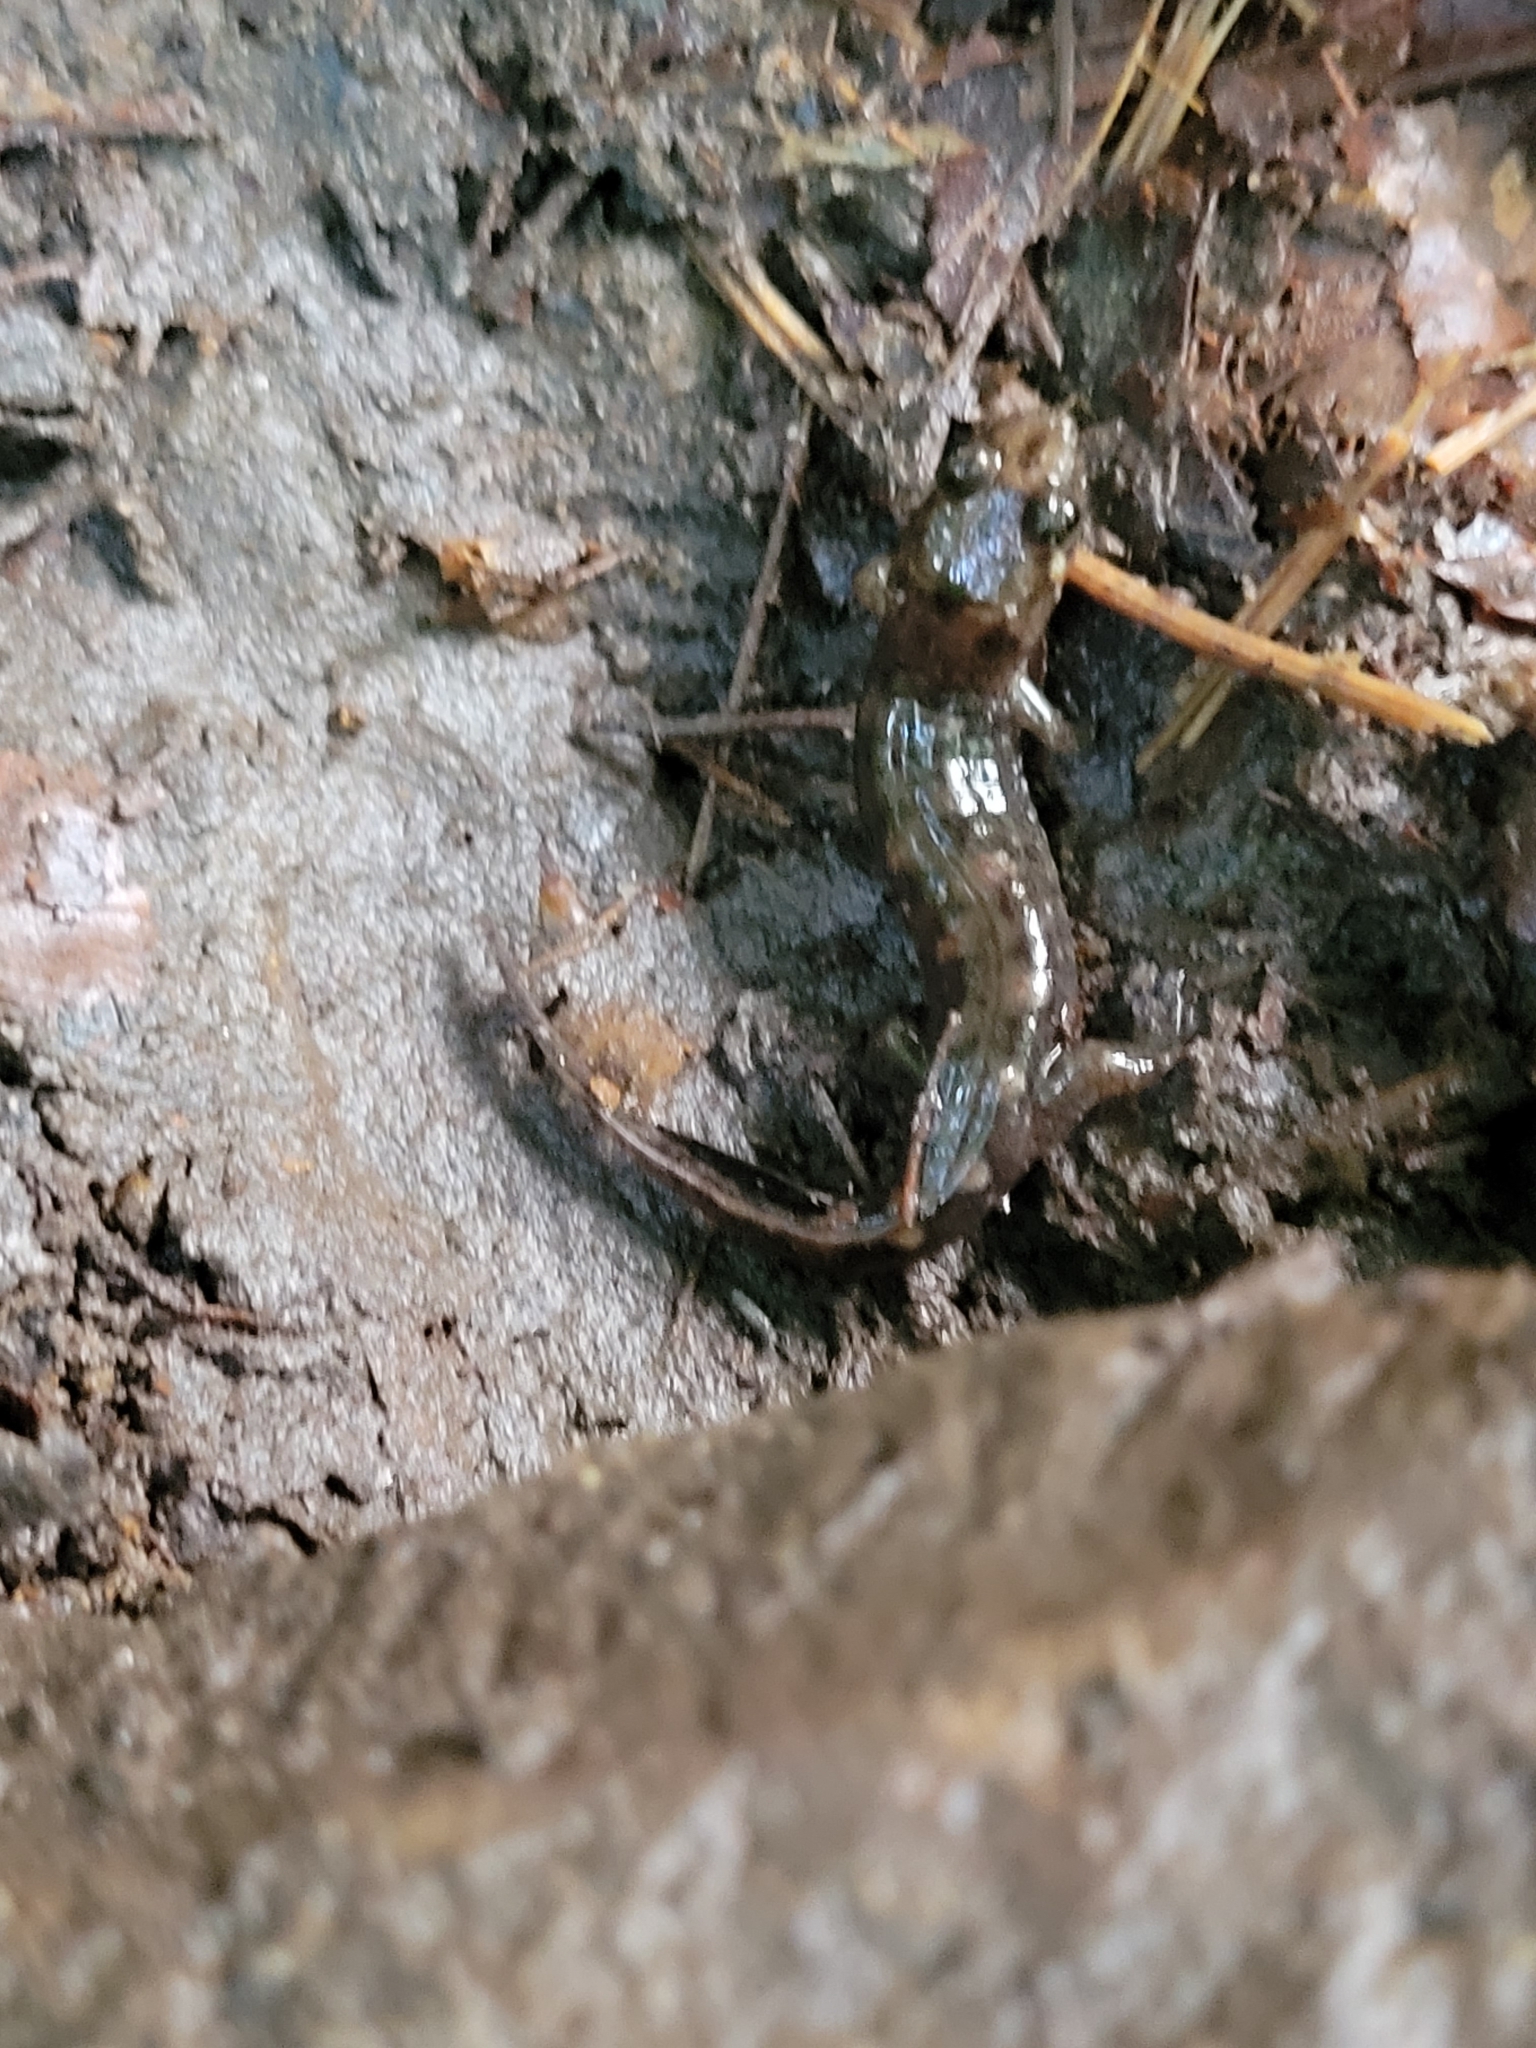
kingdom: Animalia
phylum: Chordata
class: Amphibia
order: Caudata
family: Plethodontidae
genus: Desmognathus
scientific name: Desmognathus monticola
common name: Seal salamander
